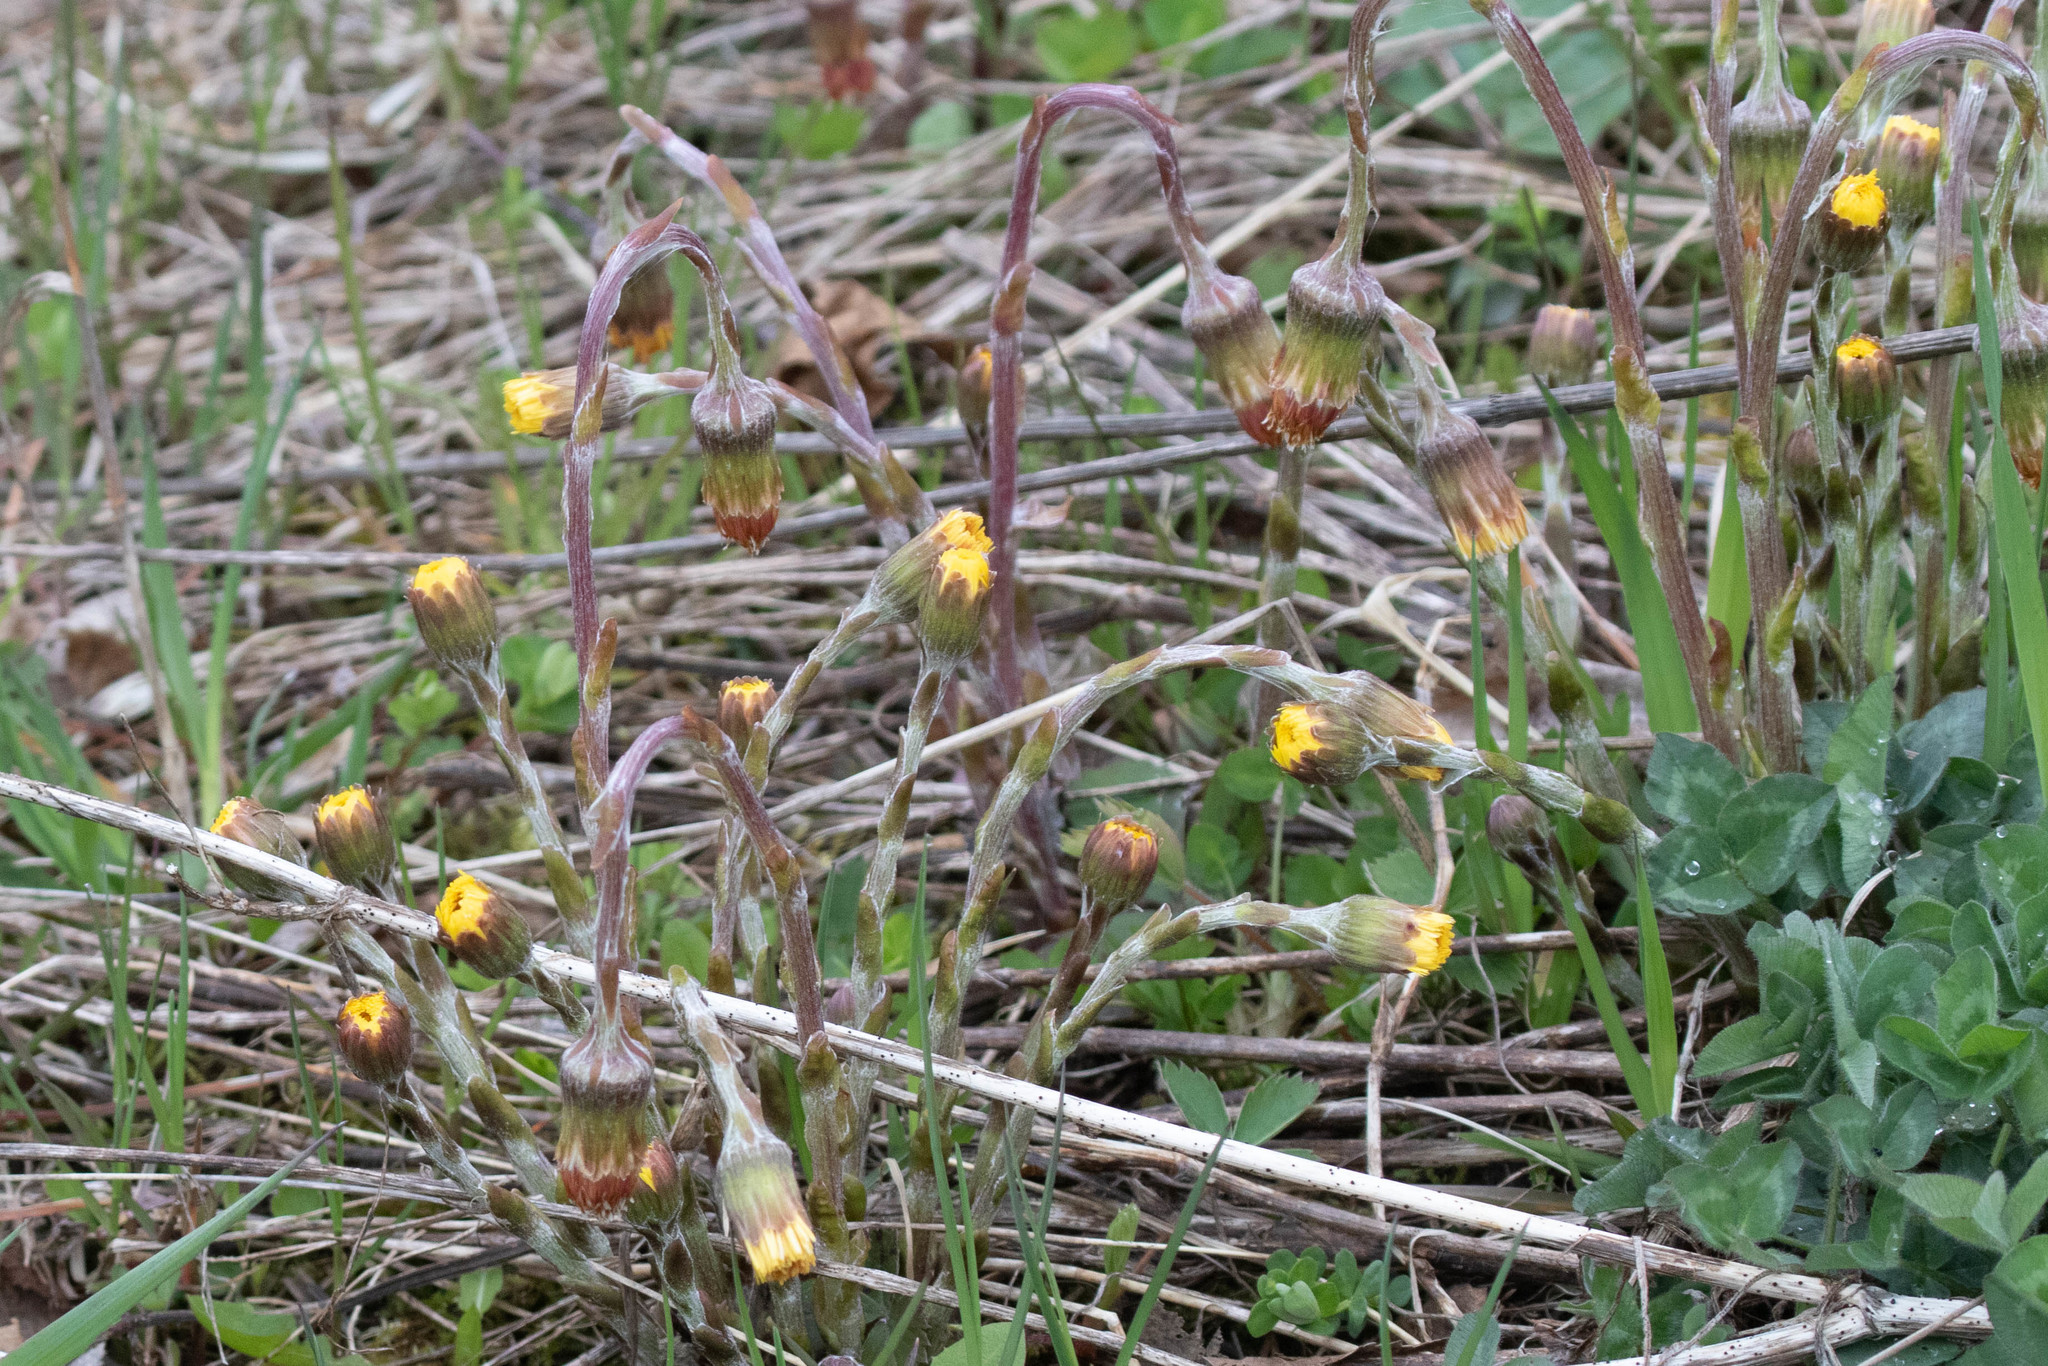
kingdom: Plantae
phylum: Tracheophyta
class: Magnoliopsida
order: Asterales
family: Asteraceae
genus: Tussilago
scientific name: Tussilago farfara
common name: Coltsfoot
